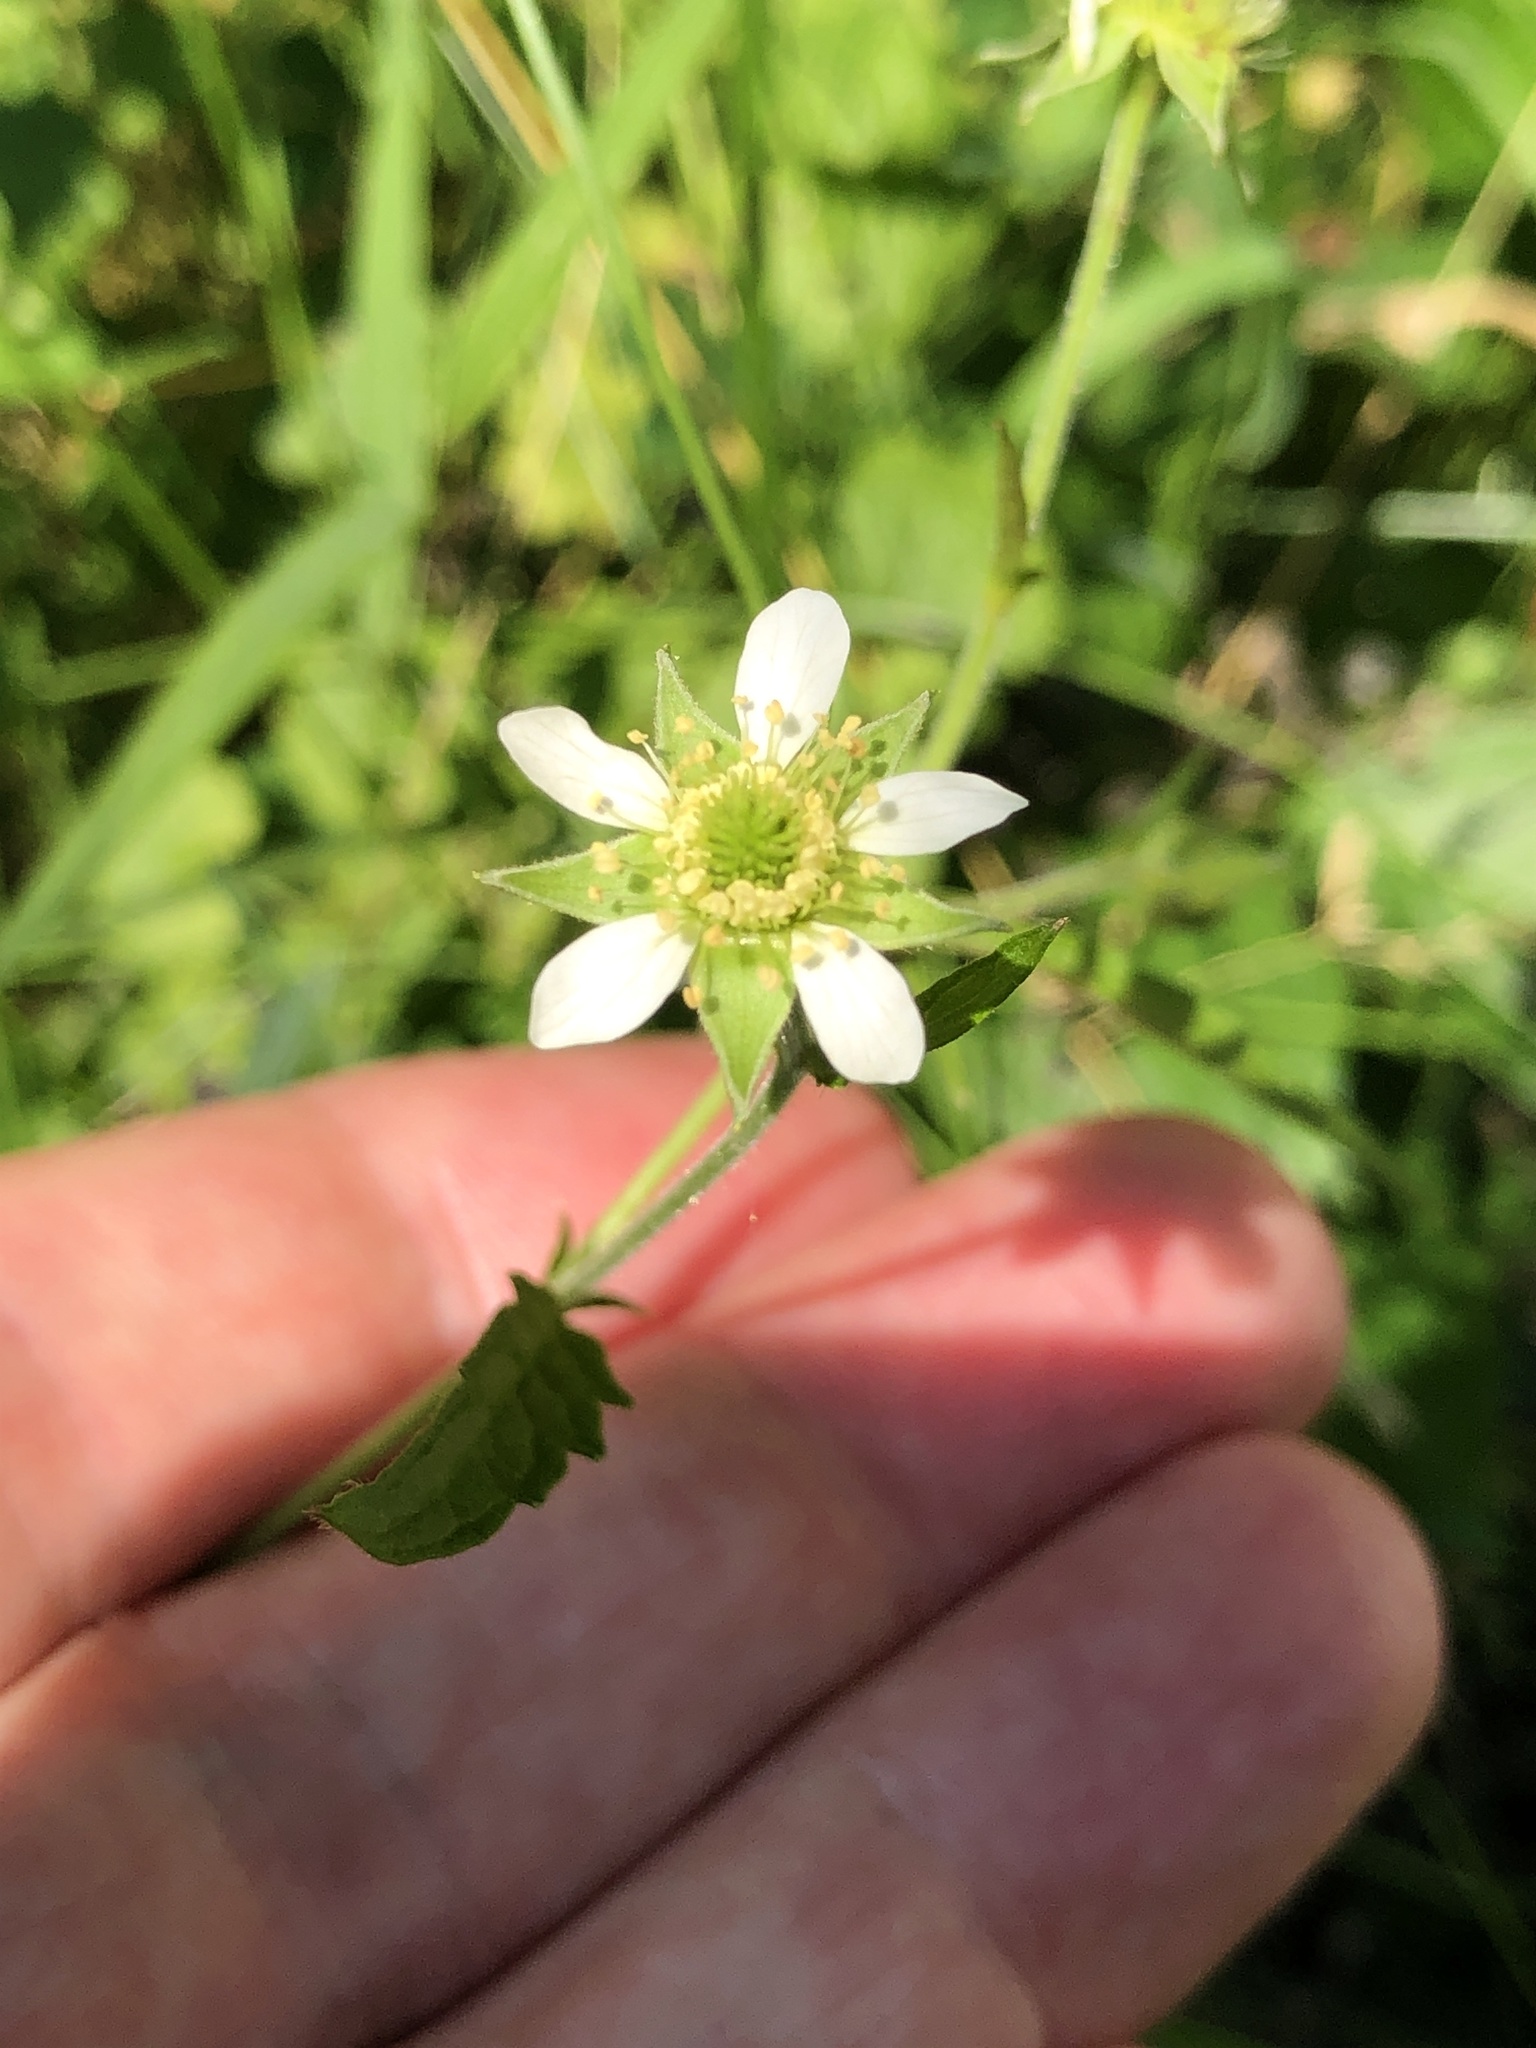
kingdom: Plantae
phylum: Tracheophyta
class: Magnoliopsida
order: Rosales
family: Rosaceae
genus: Geum
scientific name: Geum canadense
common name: White avens
